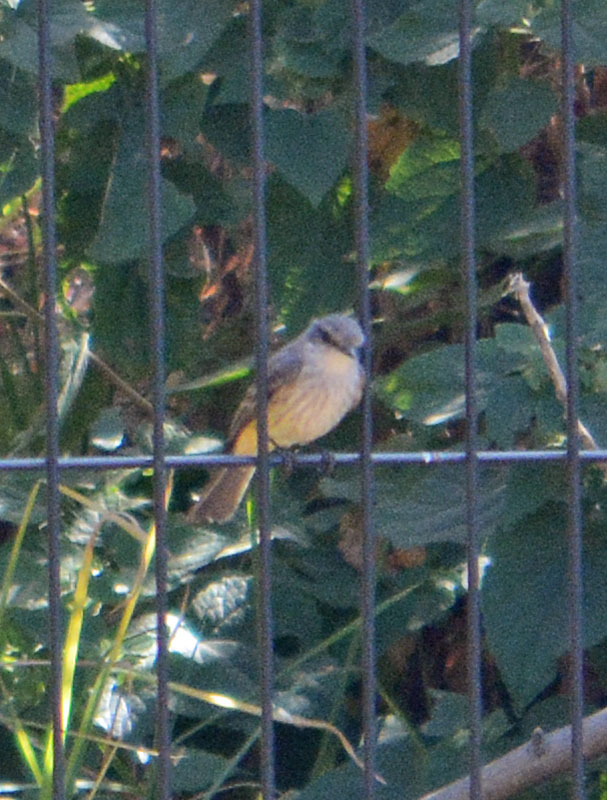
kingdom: Animalia
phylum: Chordata
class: Aves
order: Passeriformes
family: Tyrannidae
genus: Pyrocephalus
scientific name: Pyrocephalus rubinus
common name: Vermilion flycatcher
